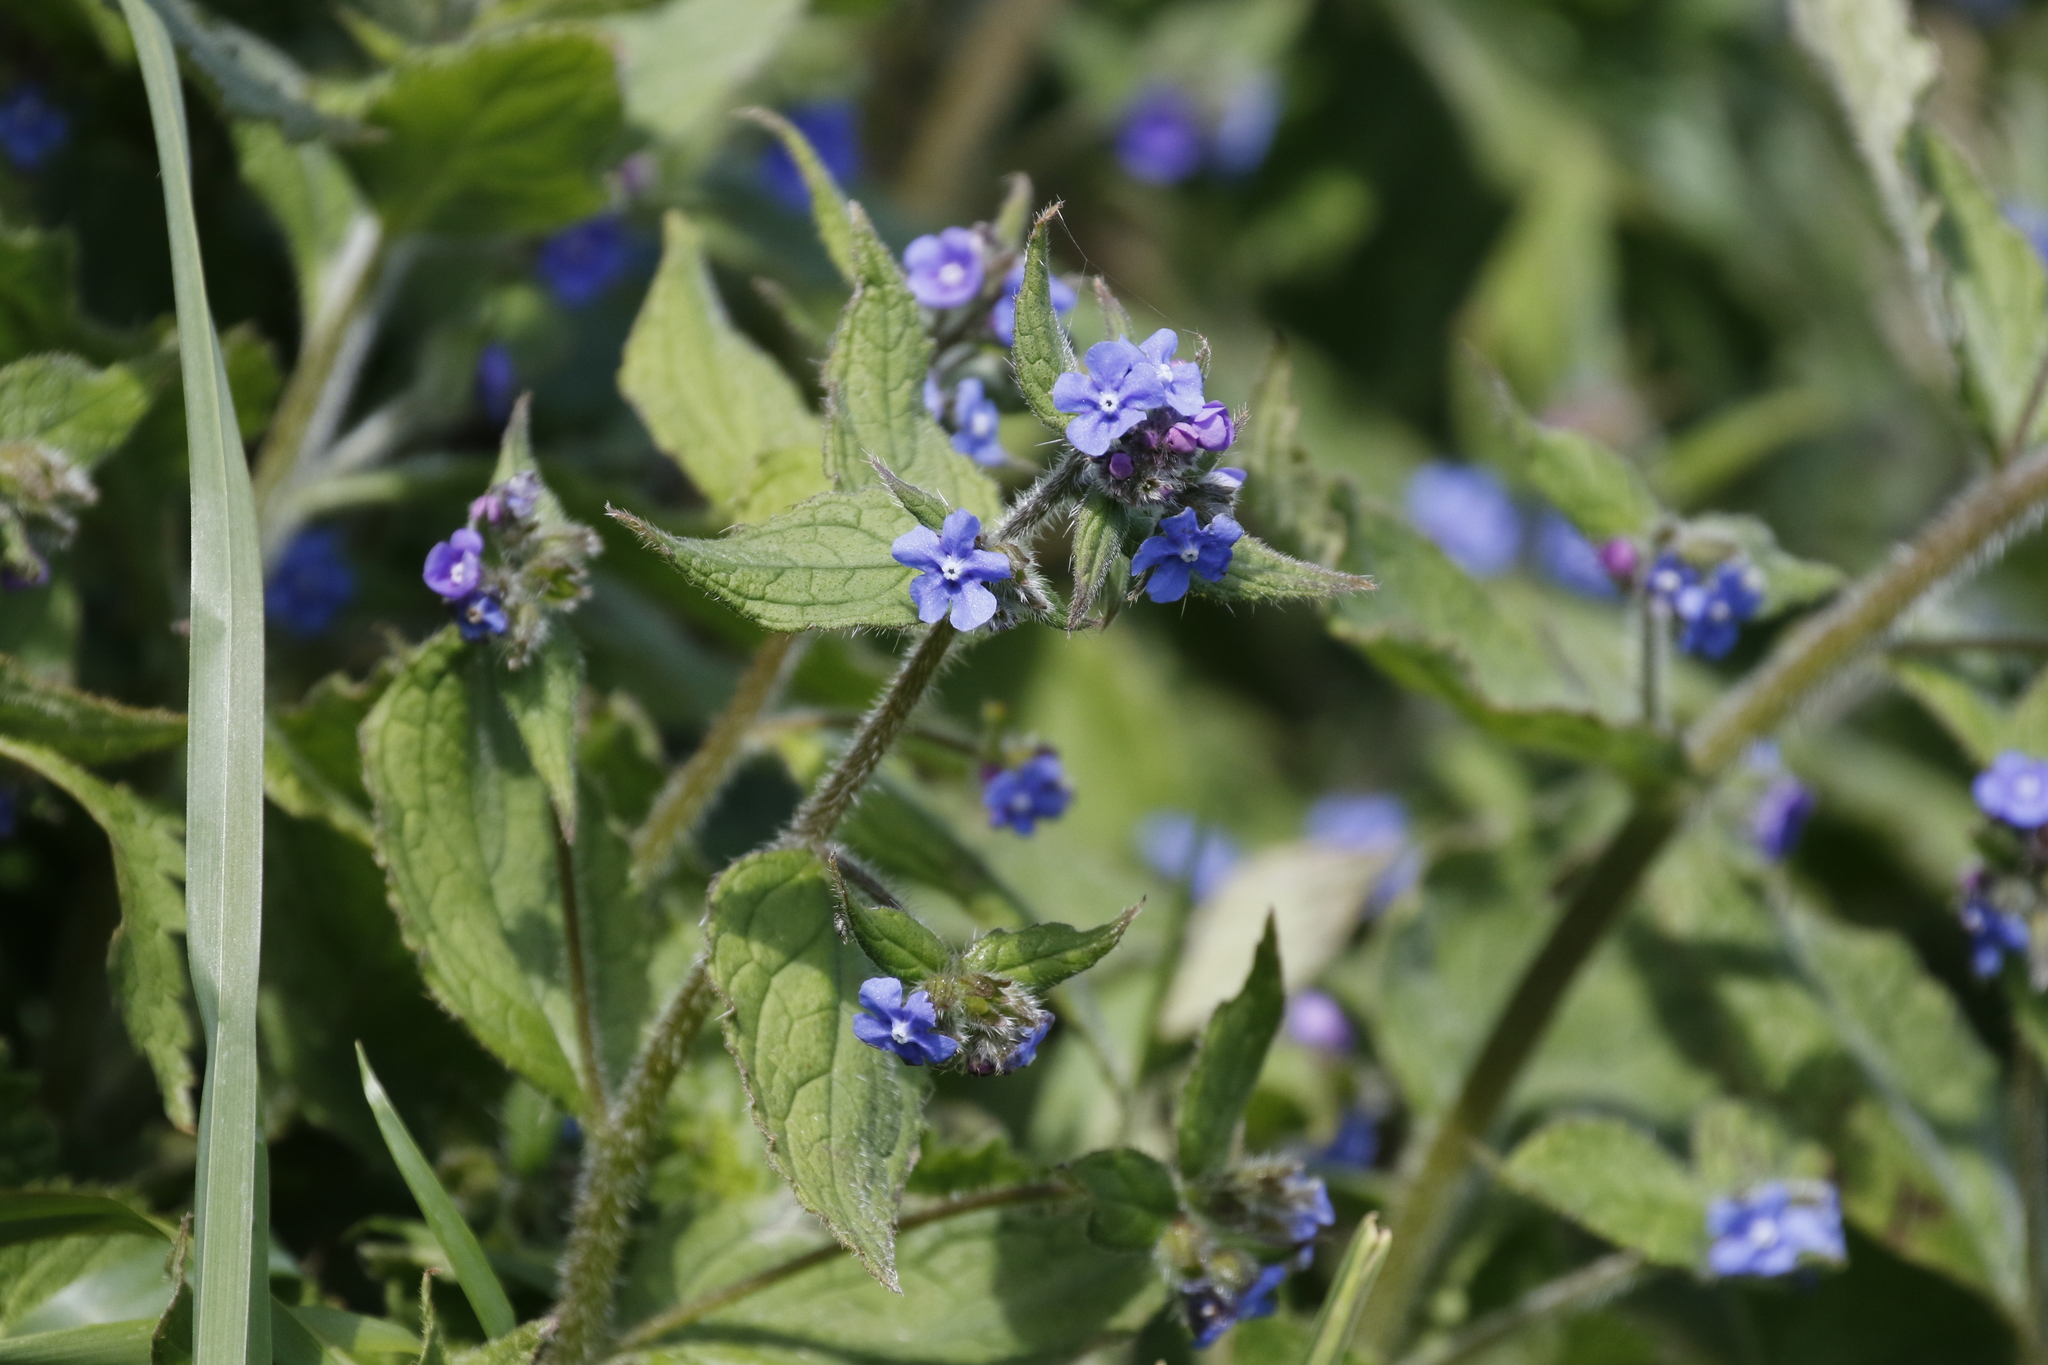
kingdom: Plantae
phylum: Tracheophyta
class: Magnoliopsida
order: Boraginales
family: Boraginaceae
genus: Pentaglottis
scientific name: Pentaglottis sempervirens
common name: Green alkanet
